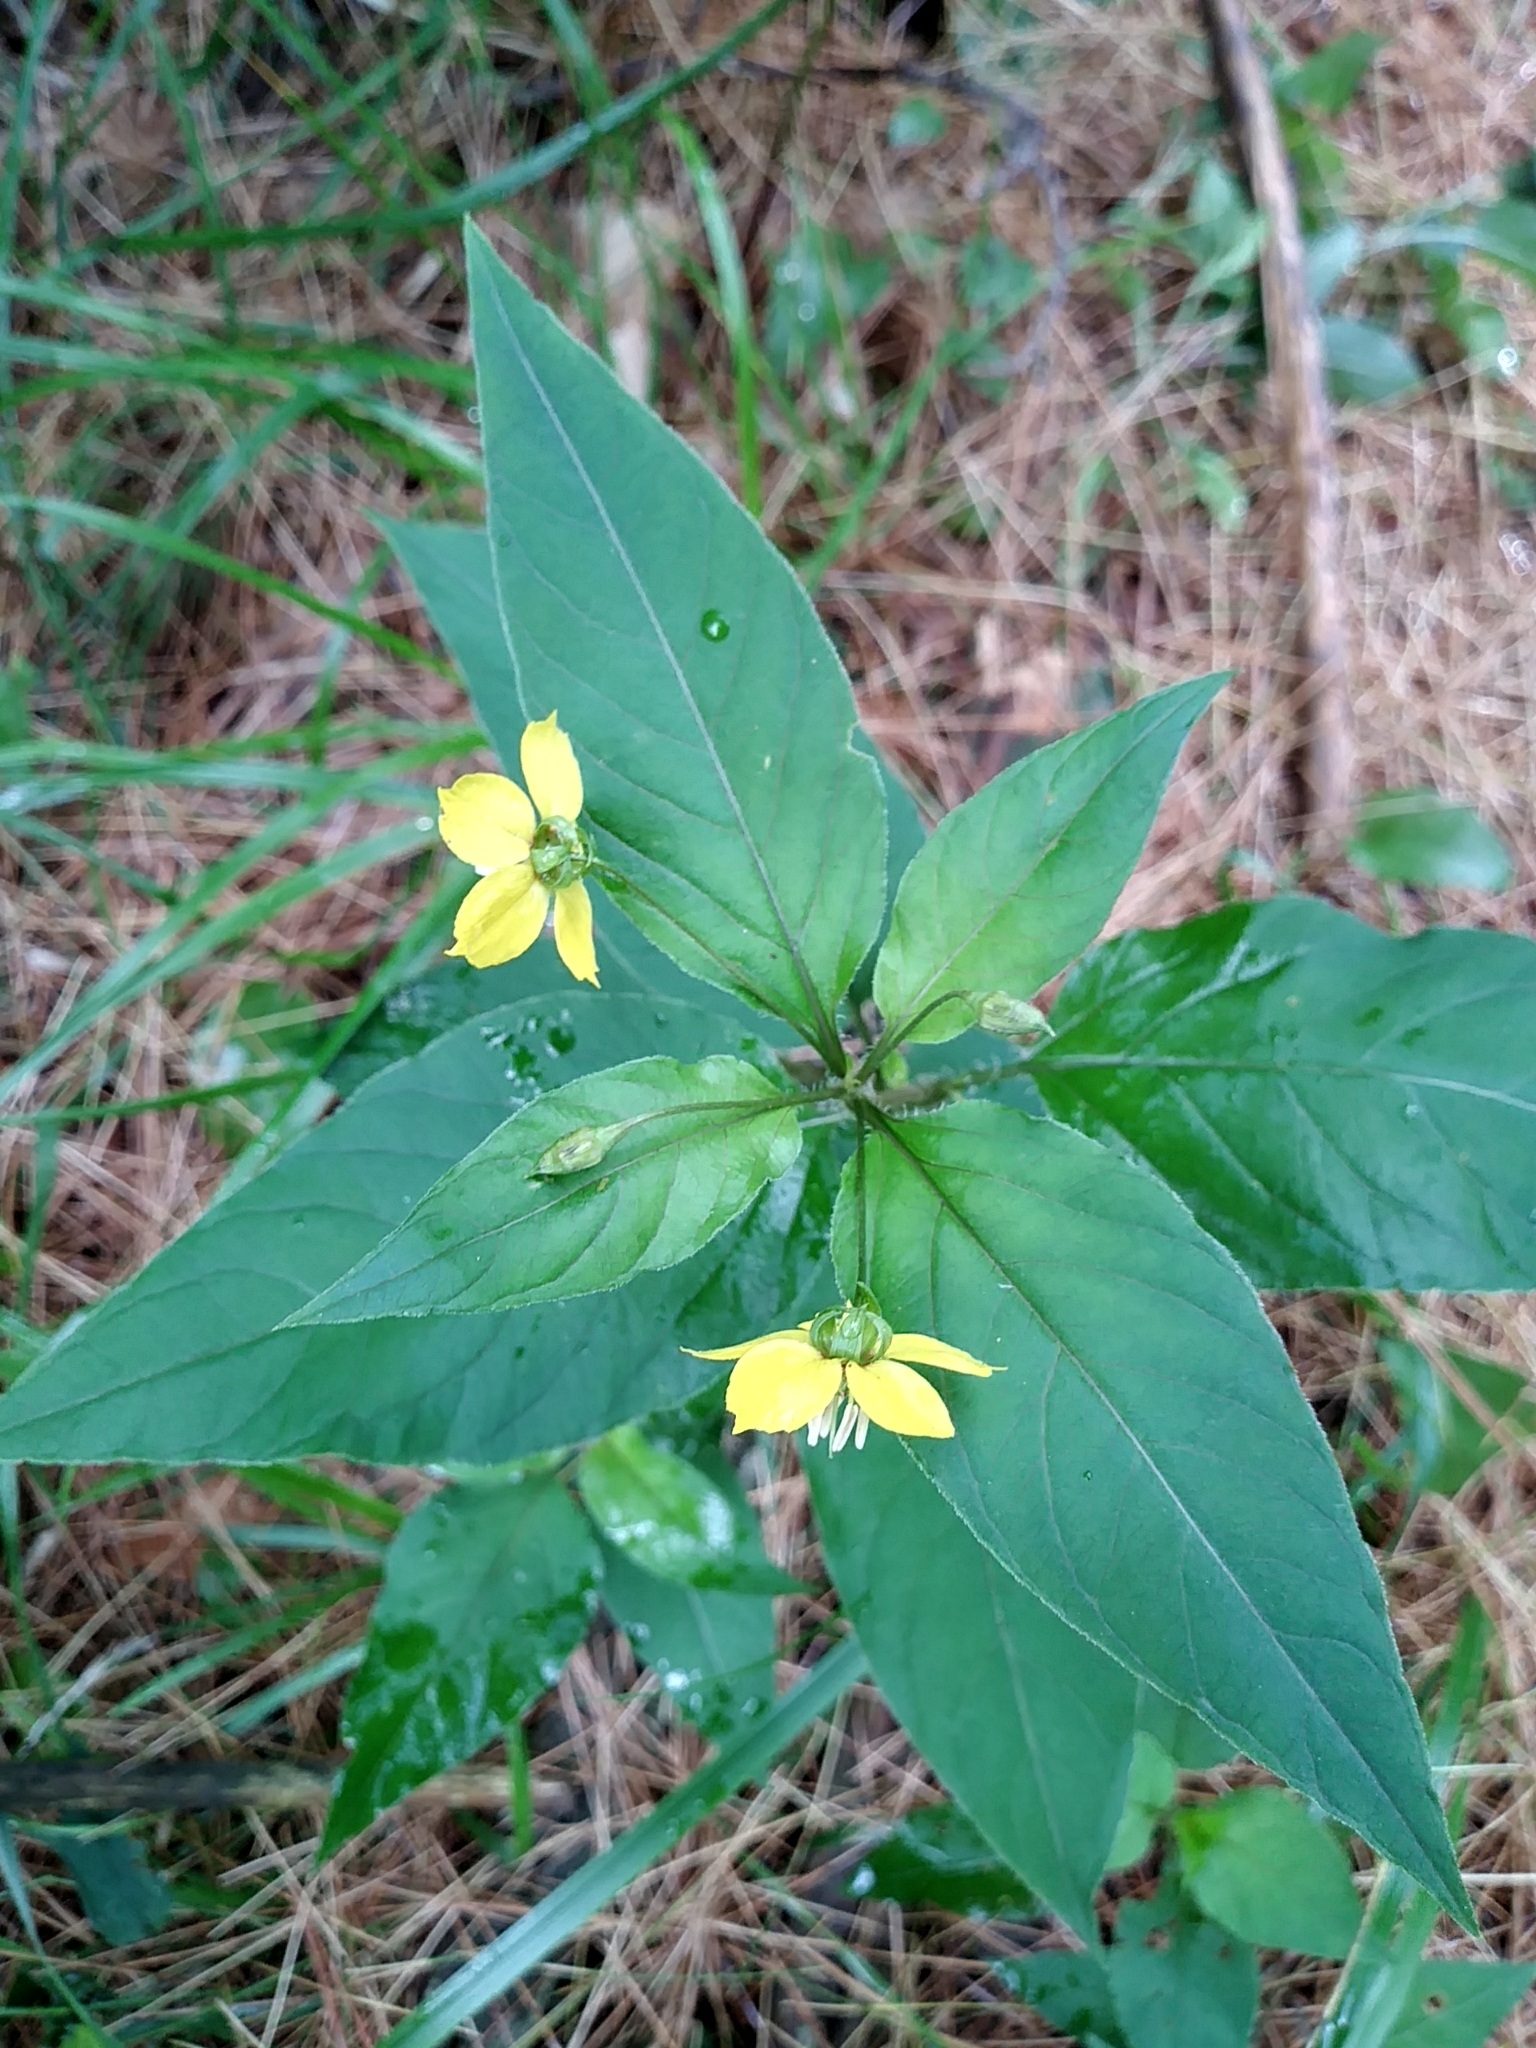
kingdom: Plantae
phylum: Tracheophyta
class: Magnoliopsida
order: Ericales
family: Primulaceae
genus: Lysimachia
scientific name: Lysimachia ciliata
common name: Fringed loosestrife
